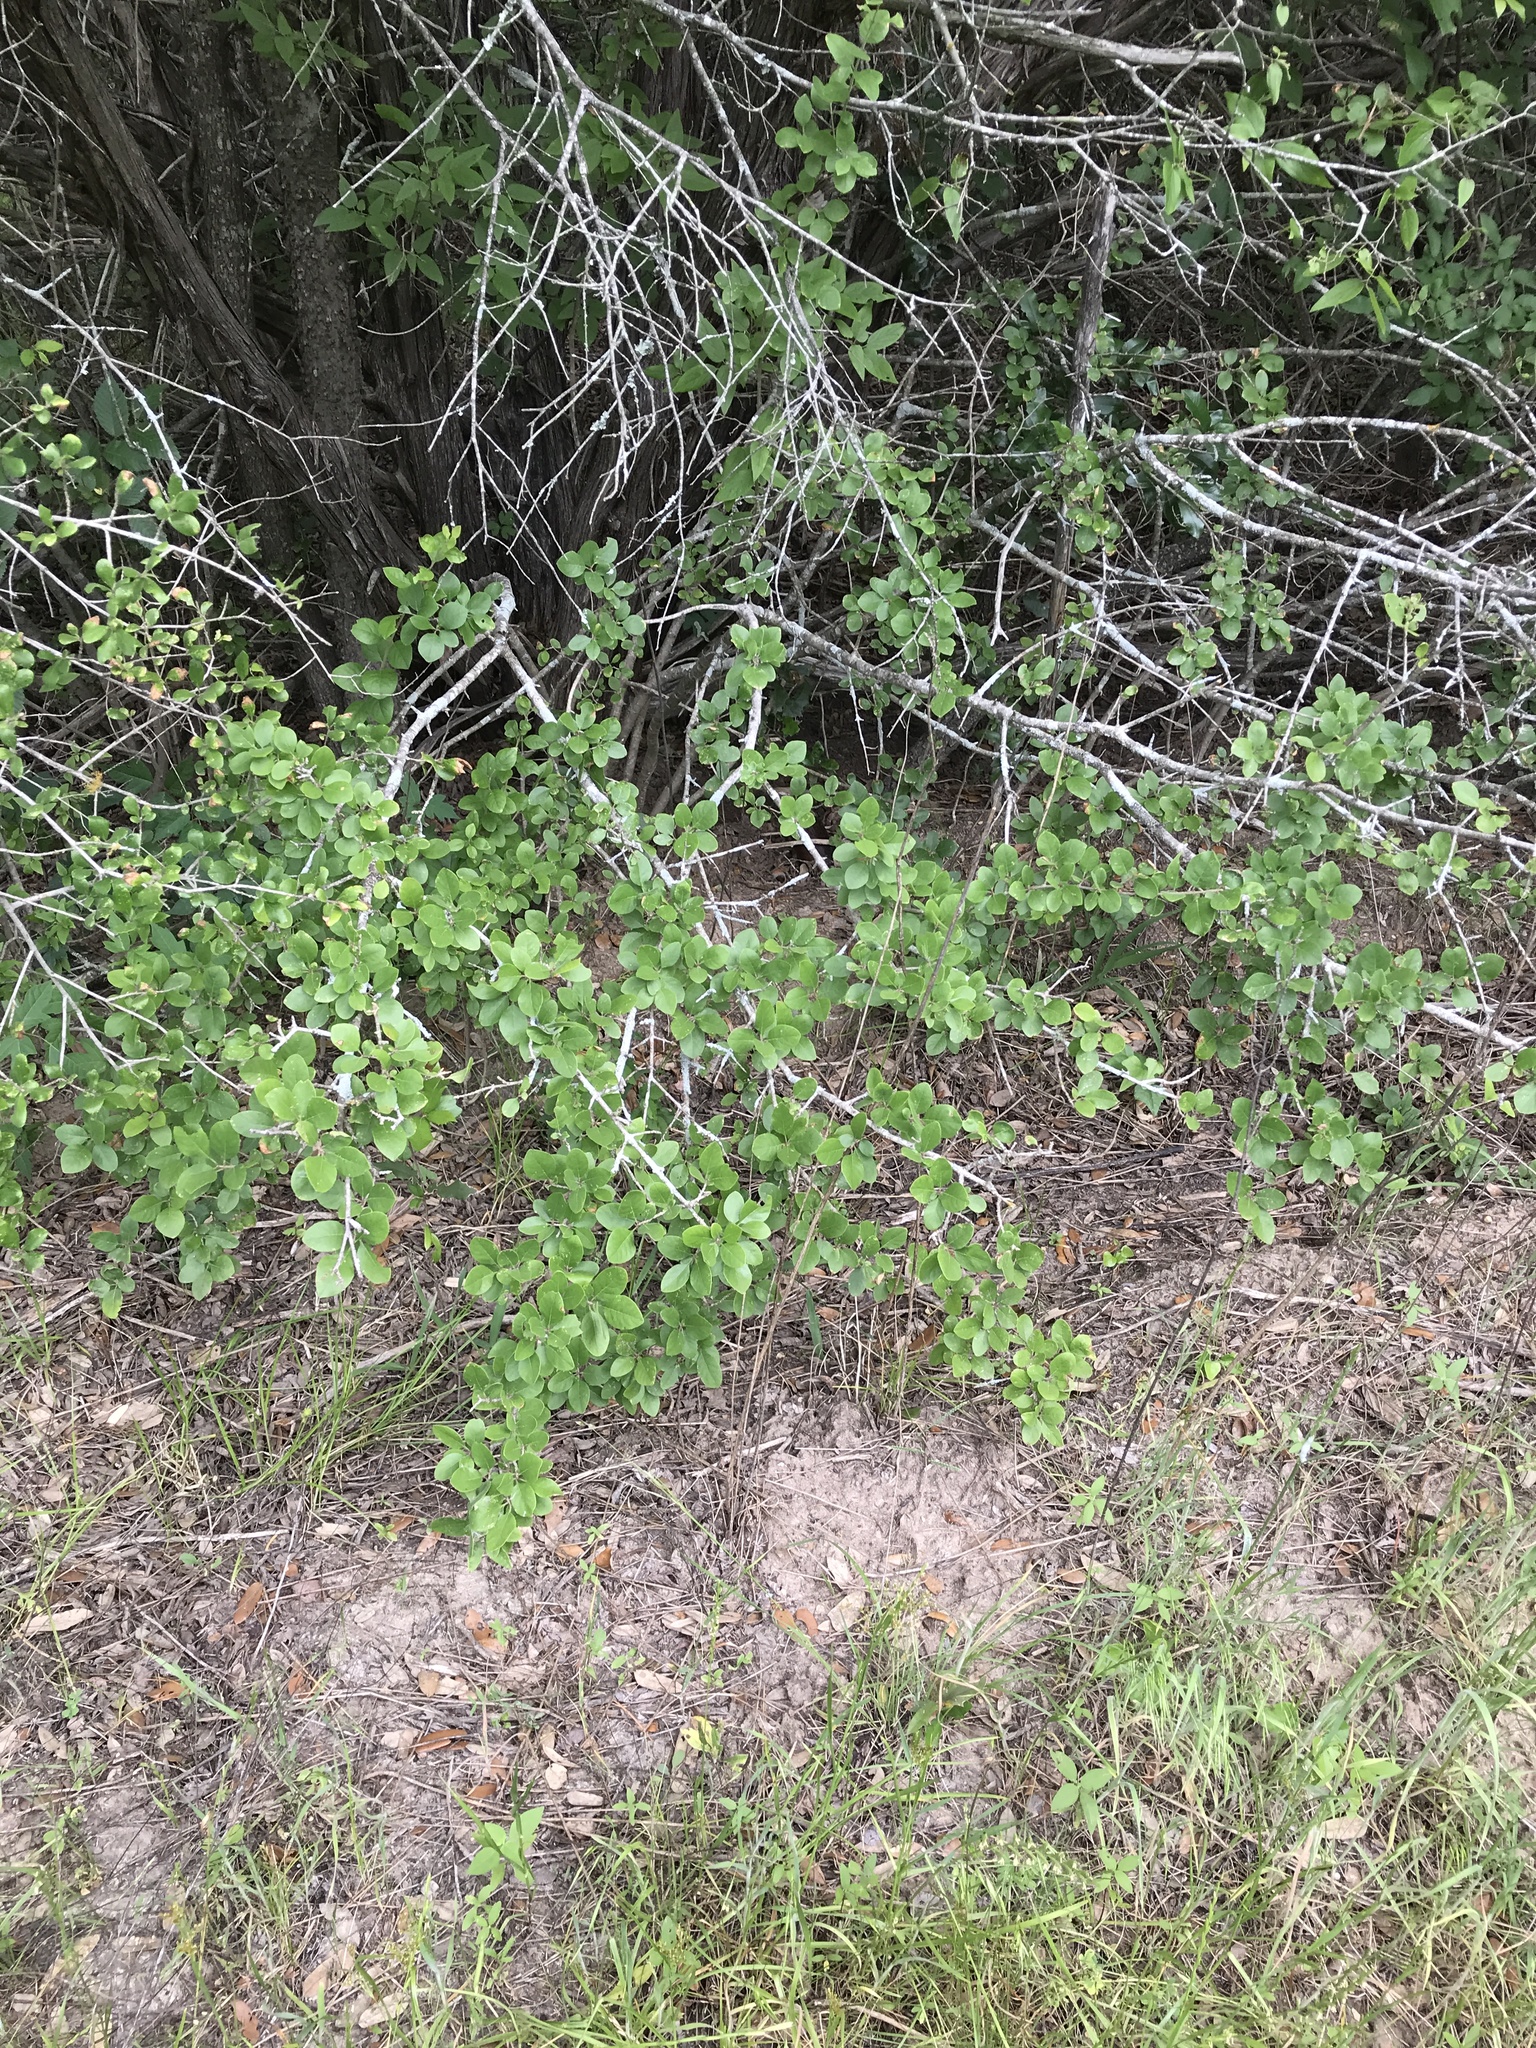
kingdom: Plantae
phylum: Tracheophyta
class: Magnoliopsida
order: Lamiales
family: Oleaceae
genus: Forestiera
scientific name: Forestiera pubescens
